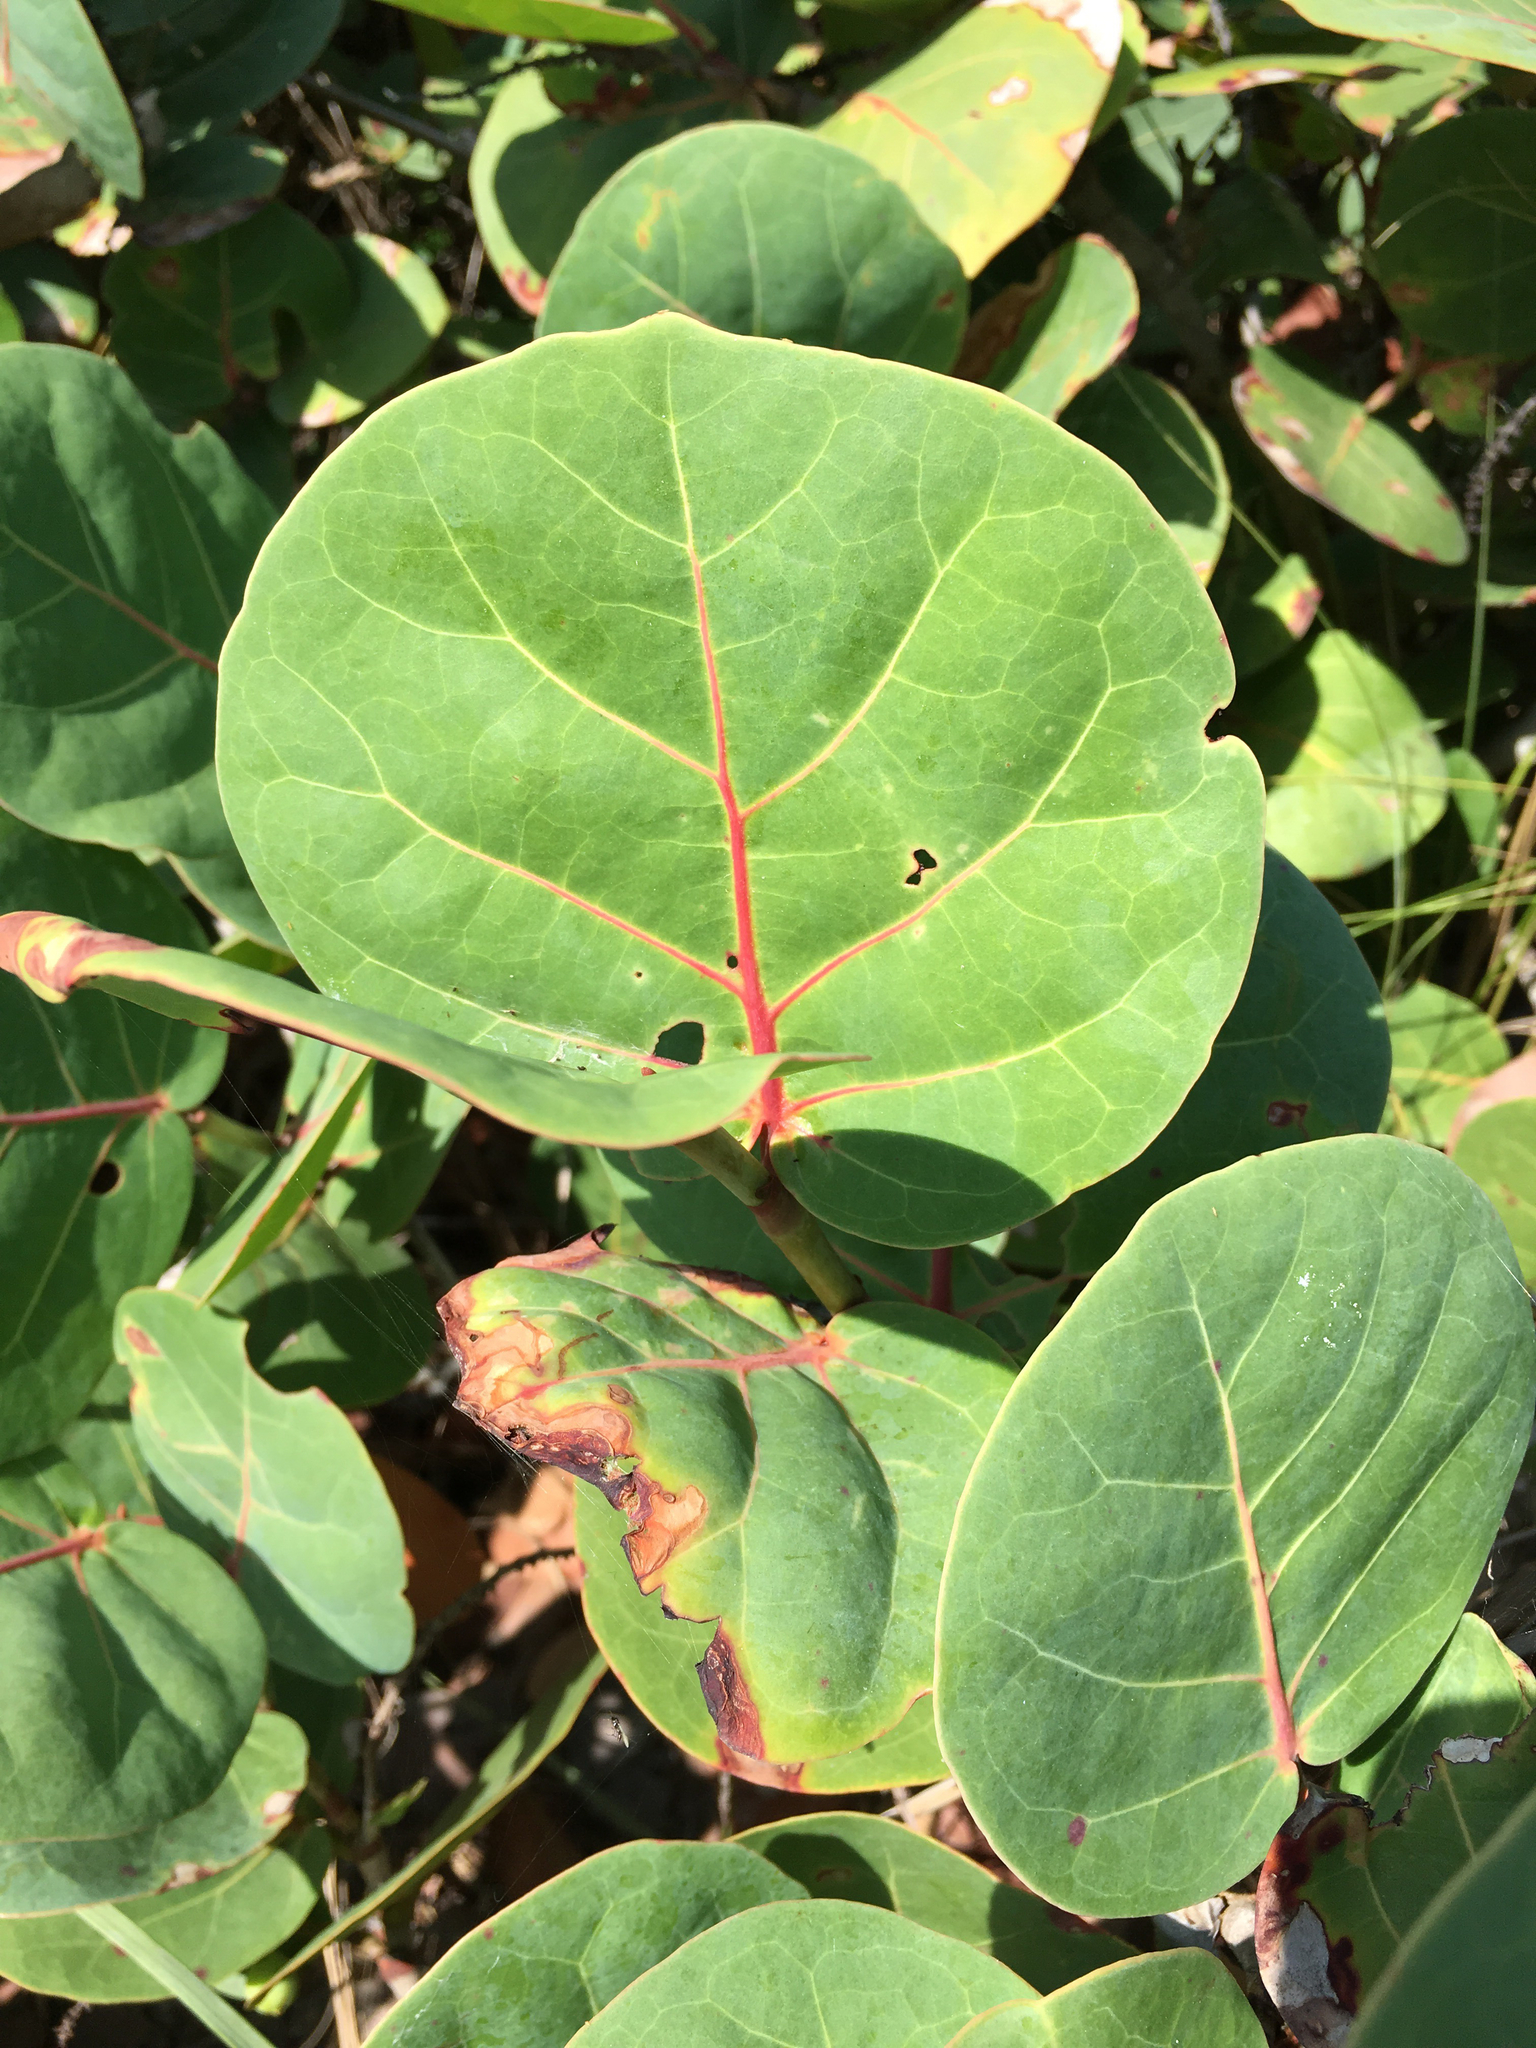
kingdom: Plantae
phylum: Tracheophyta
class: Magnoliopsida
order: Caryophyllales
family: Polygonaceae
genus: Coccoloba
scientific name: Coccoloba uvifera
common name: Seagrape
